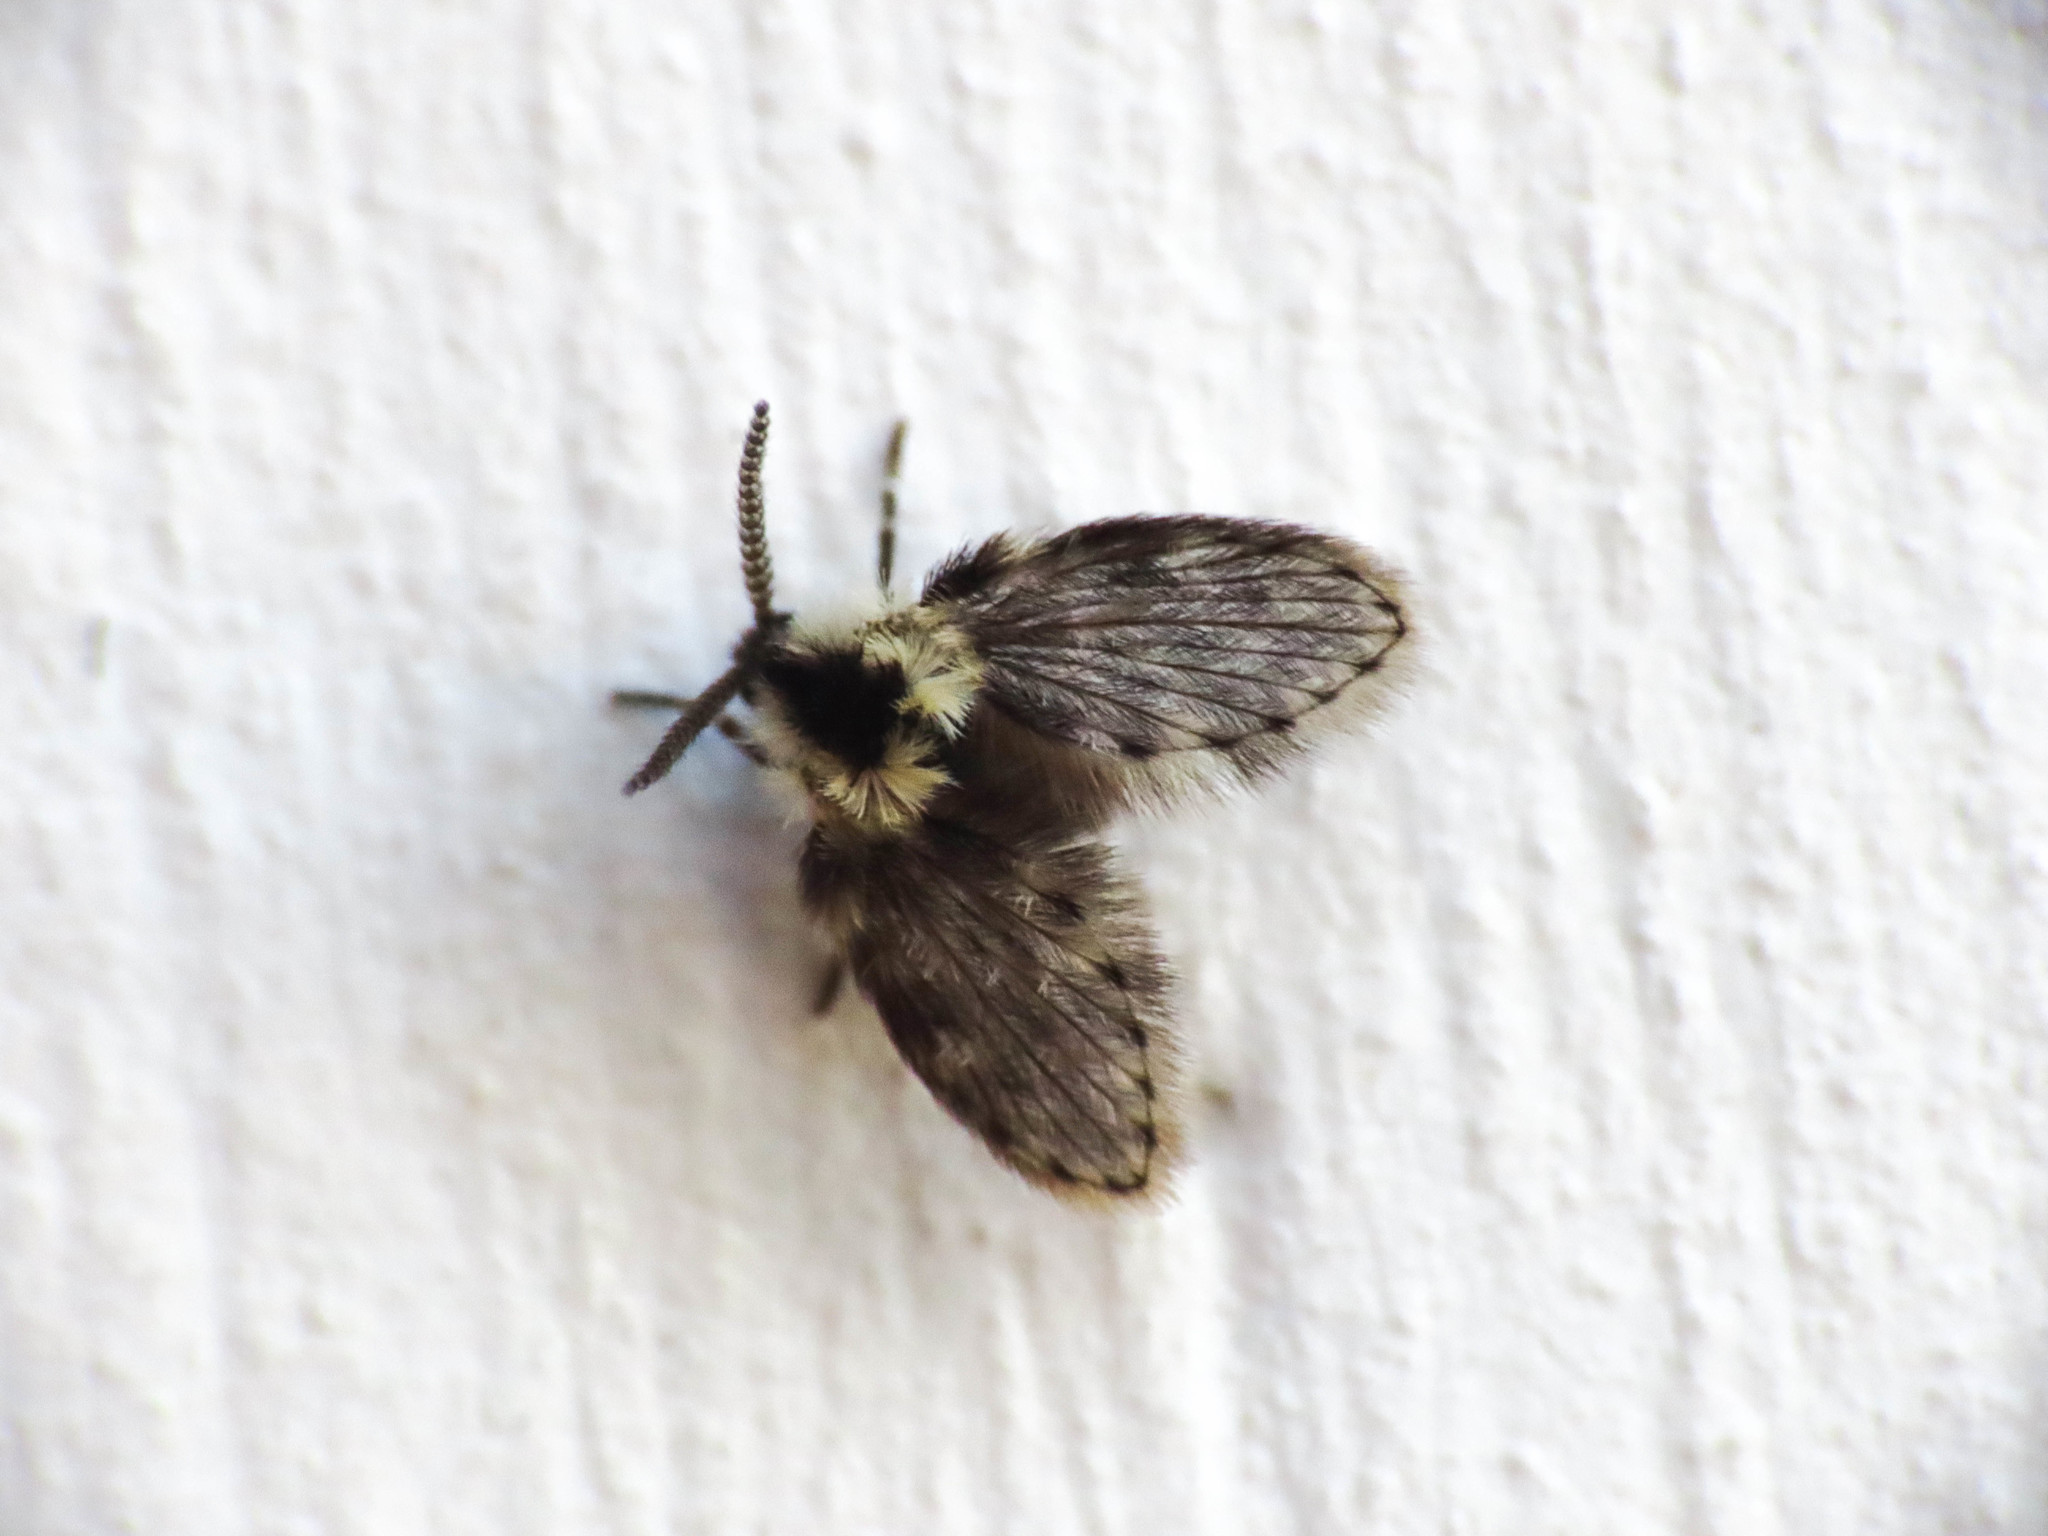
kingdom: Animalia
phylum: Arthropoda
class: Insecta
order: Diptera
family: Psychodidae
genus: Lepiseodina
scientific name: Lepiseodina
